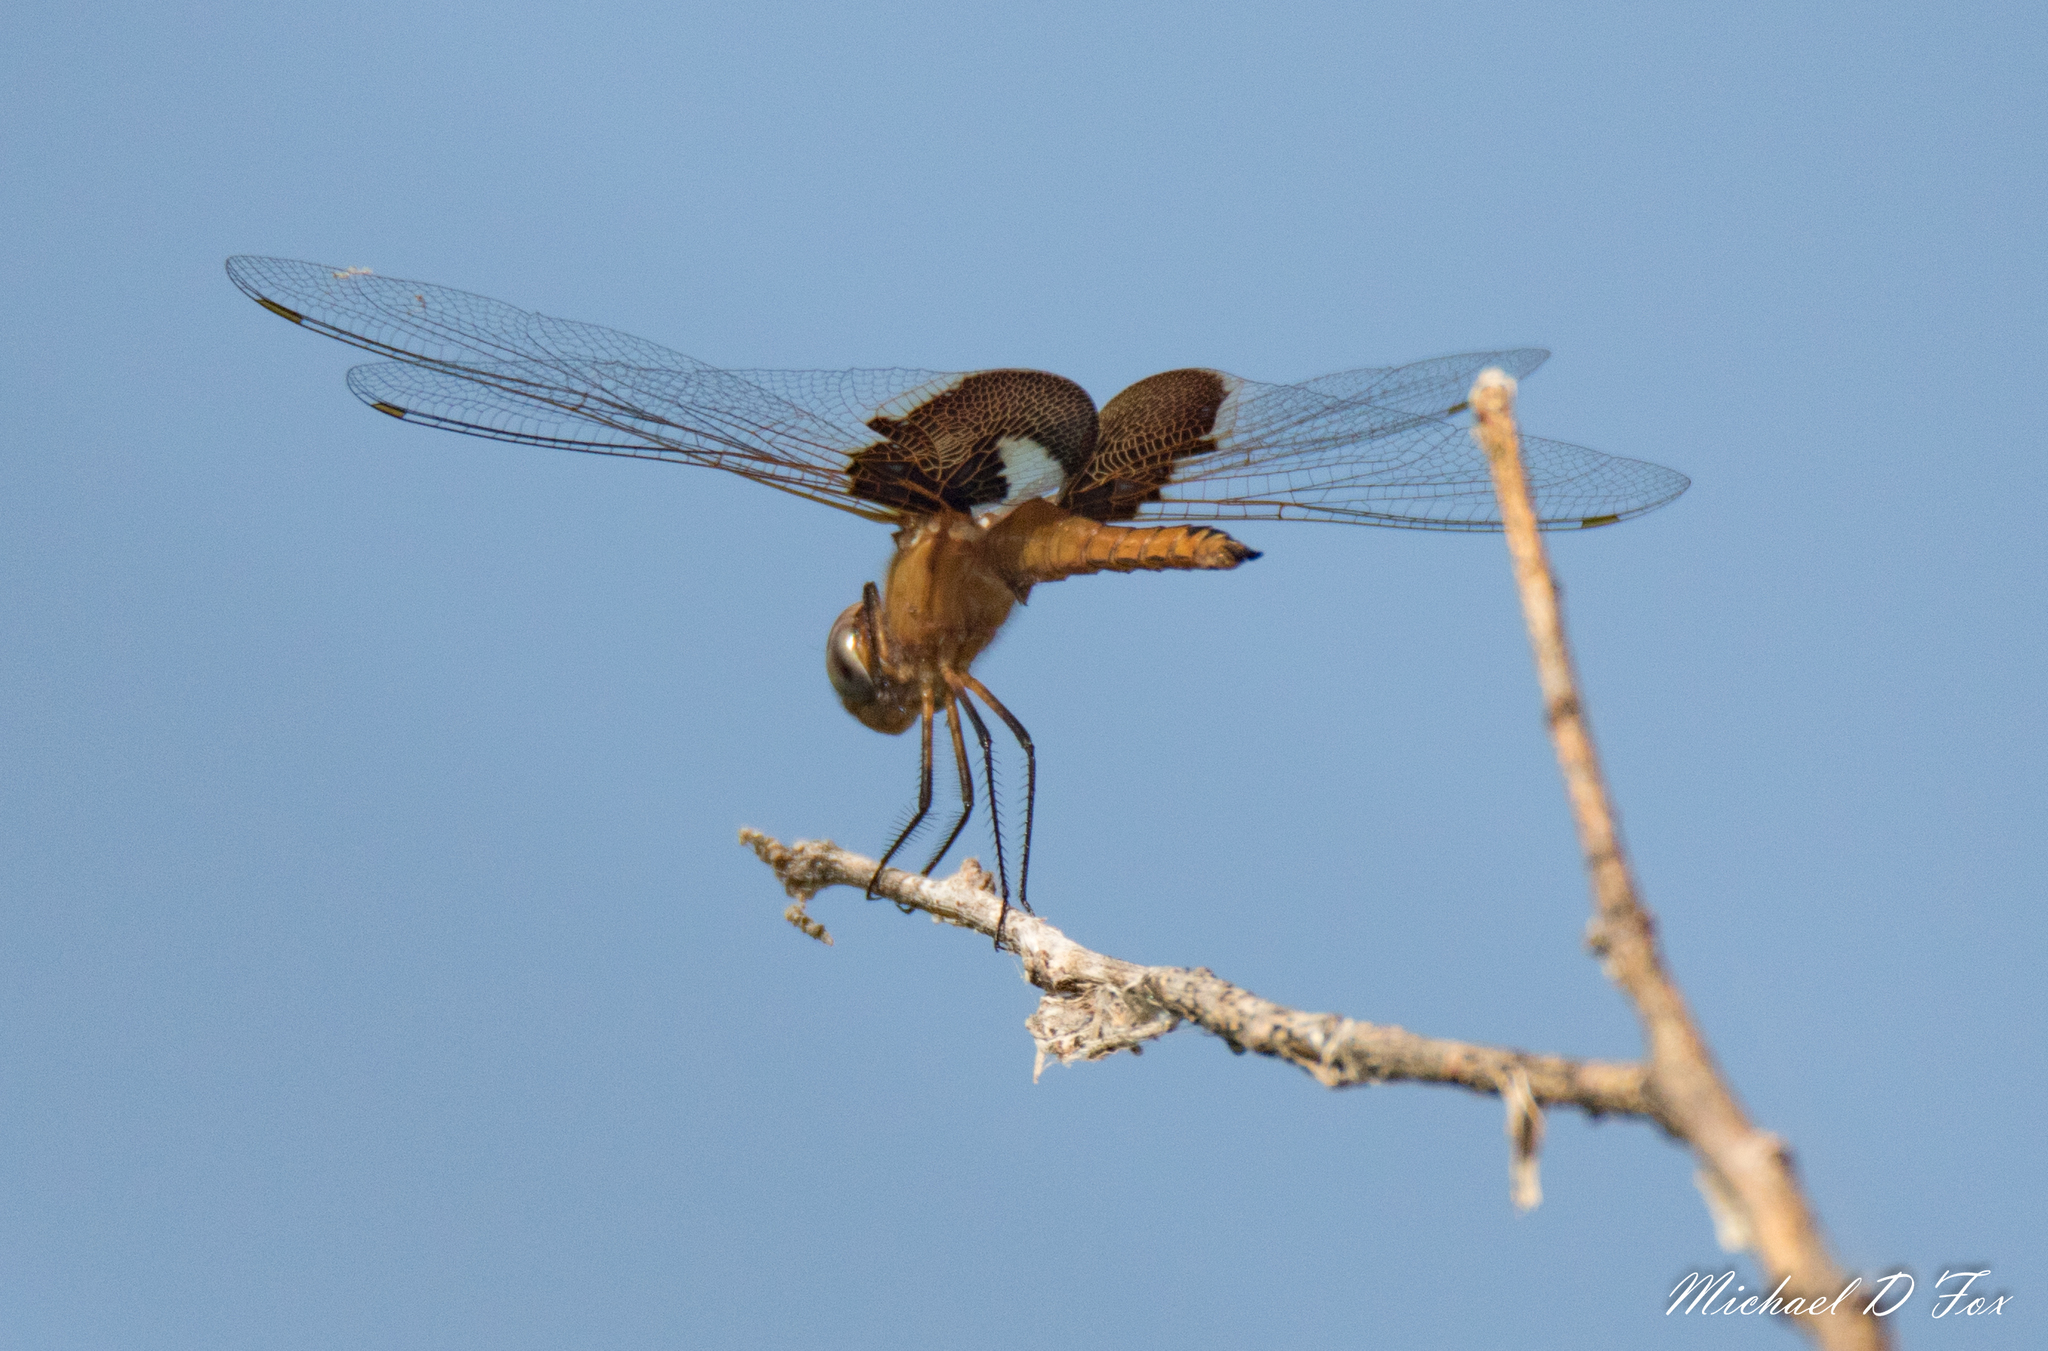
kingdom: Animalia
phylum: Arthropoda
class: Insecta
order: Odonata
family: Libellulidae
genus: Tramea
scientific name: Tramea onusta
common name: Red saddlebags
